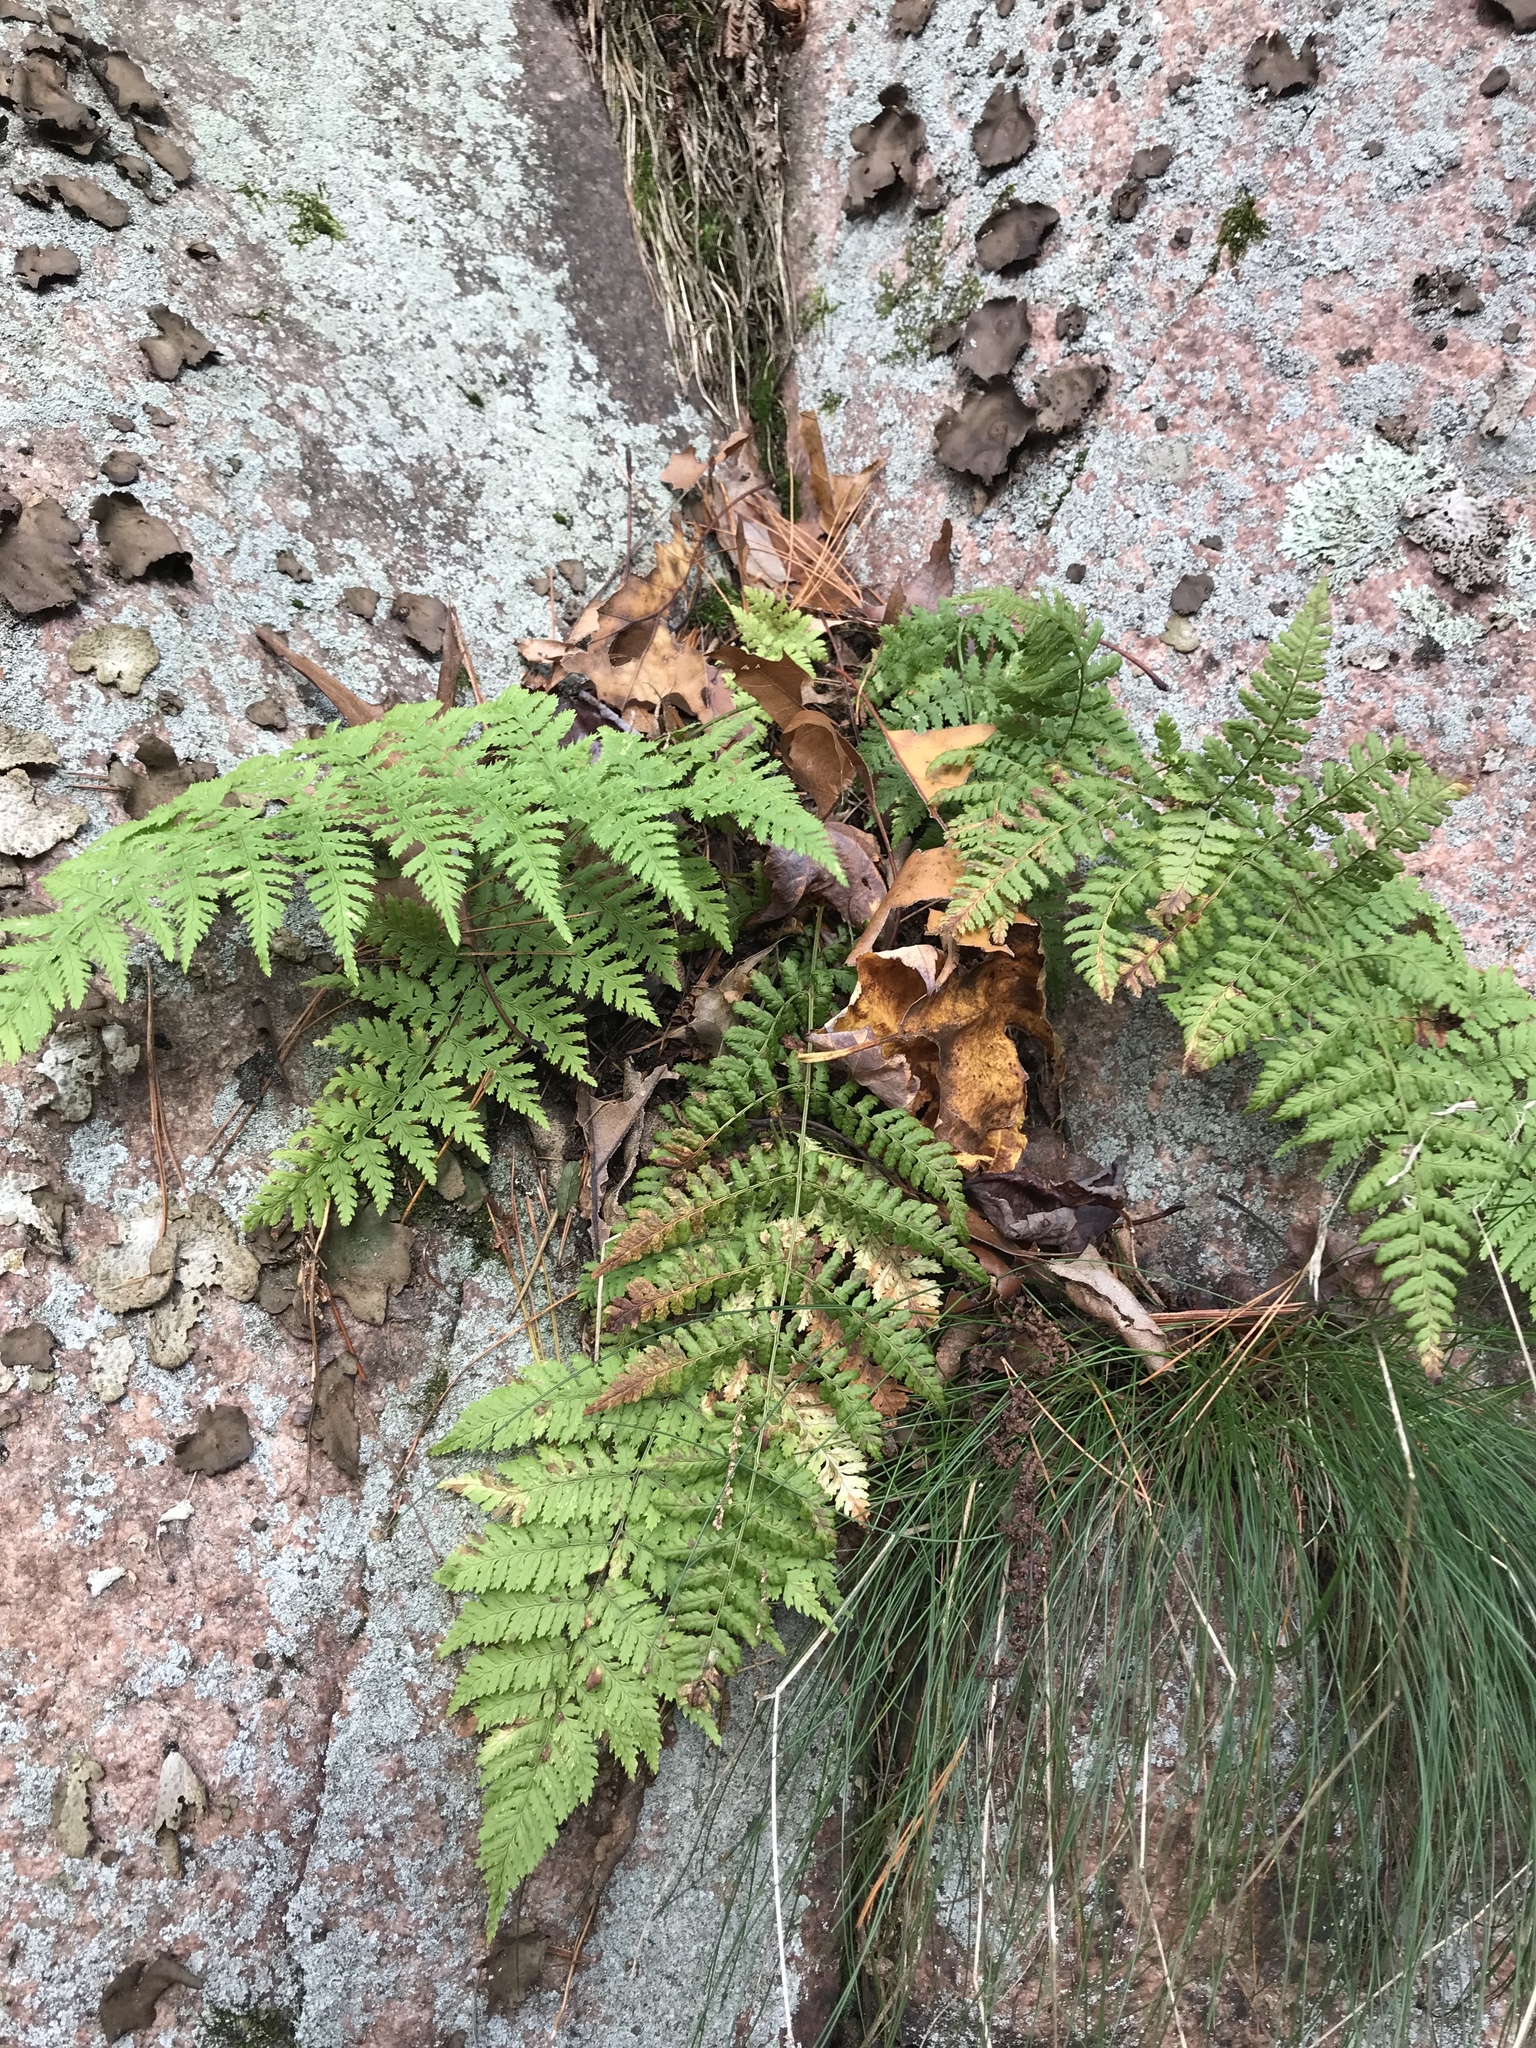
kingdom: Plantae
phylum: Tracheophyta
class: Polypodiopsida
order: Polypodiales
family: Dryopteridaceae
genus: Dryopteris
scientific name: Dryopteris intermedia
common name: Evergreen wood fern
